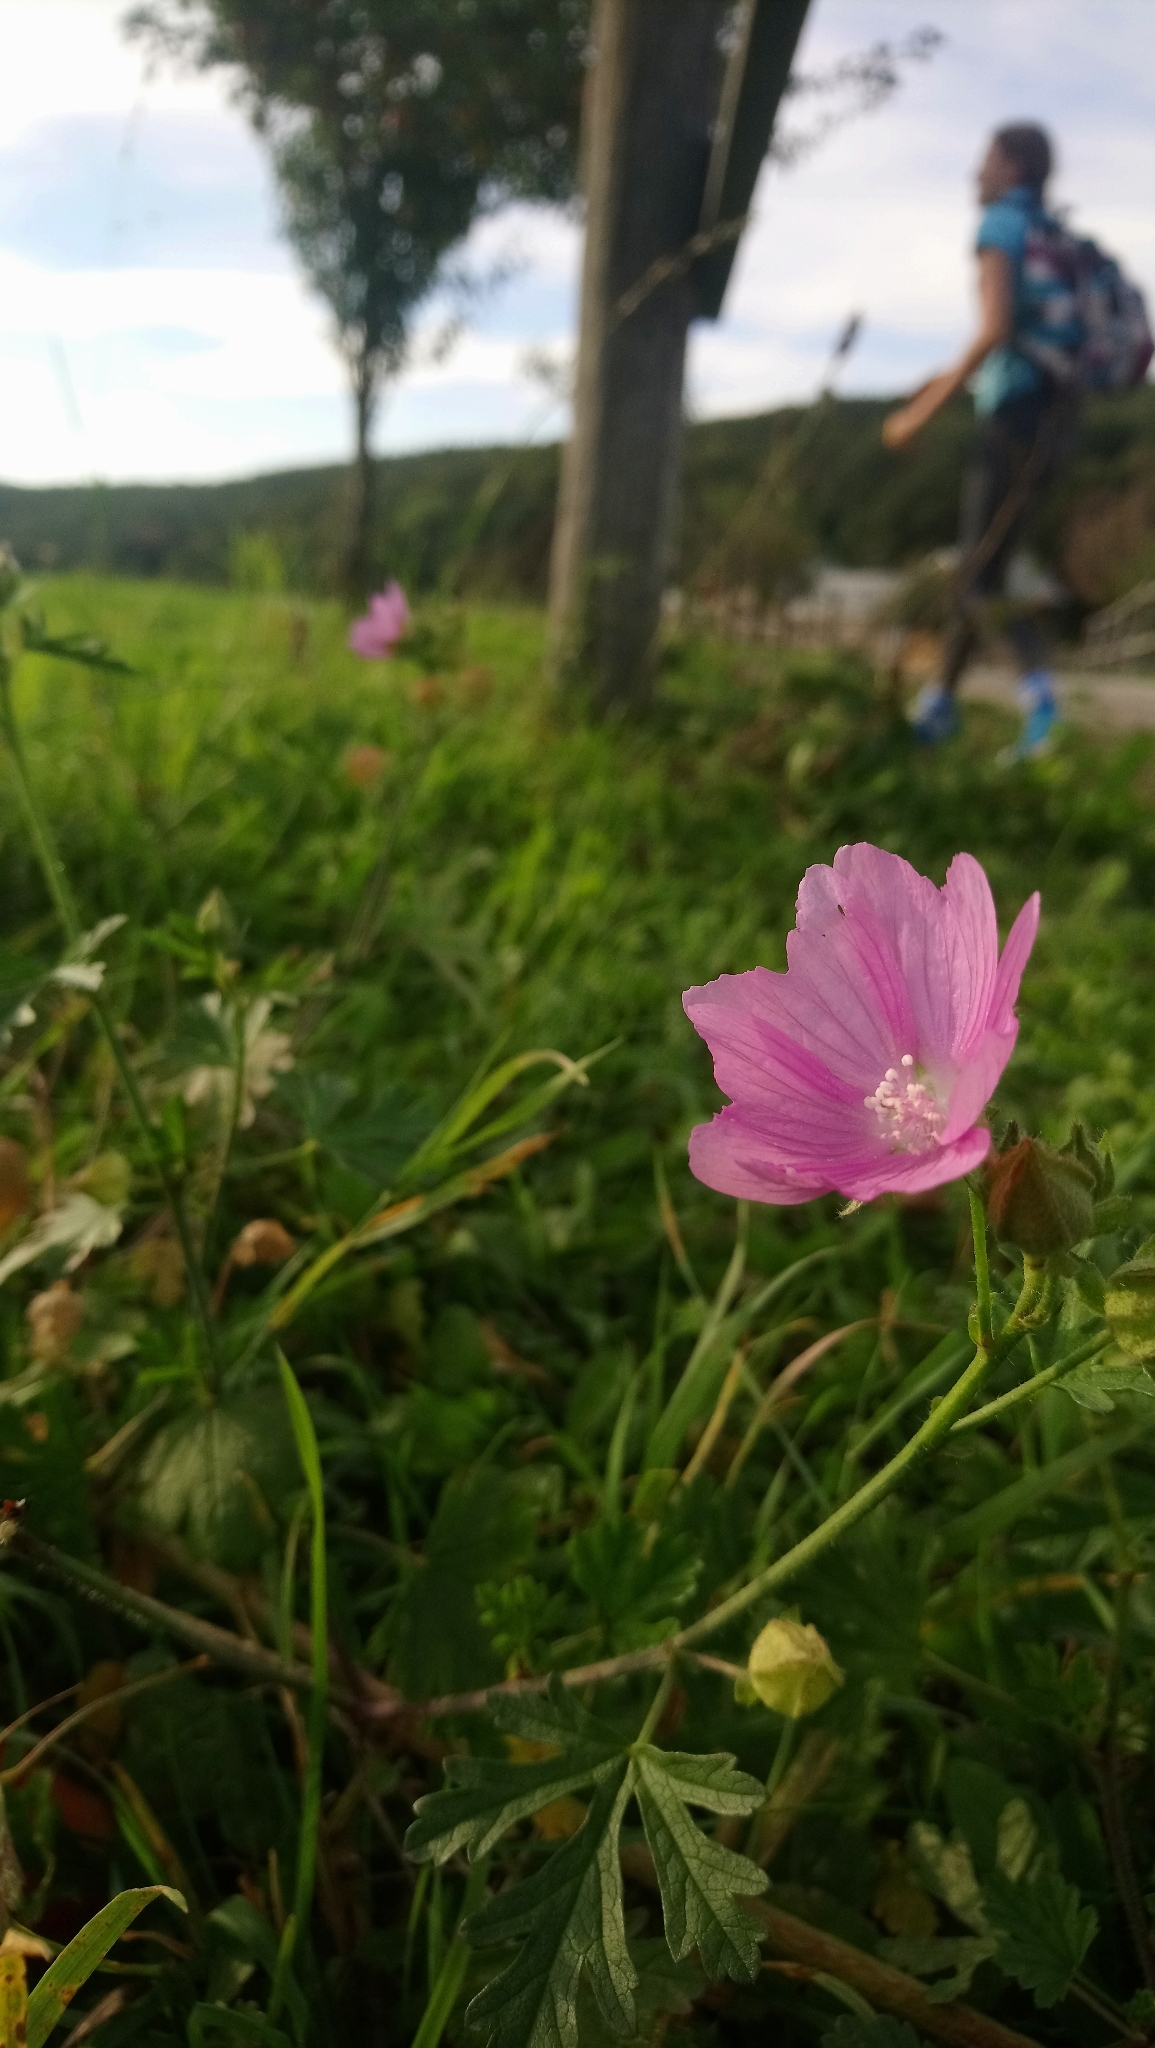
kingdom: Plantae
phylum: Tracheophyta
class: Magnoliopsida
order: Malvales
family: Malvaceae
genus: Malva
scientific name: Malva moschata
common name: Musk mallow
